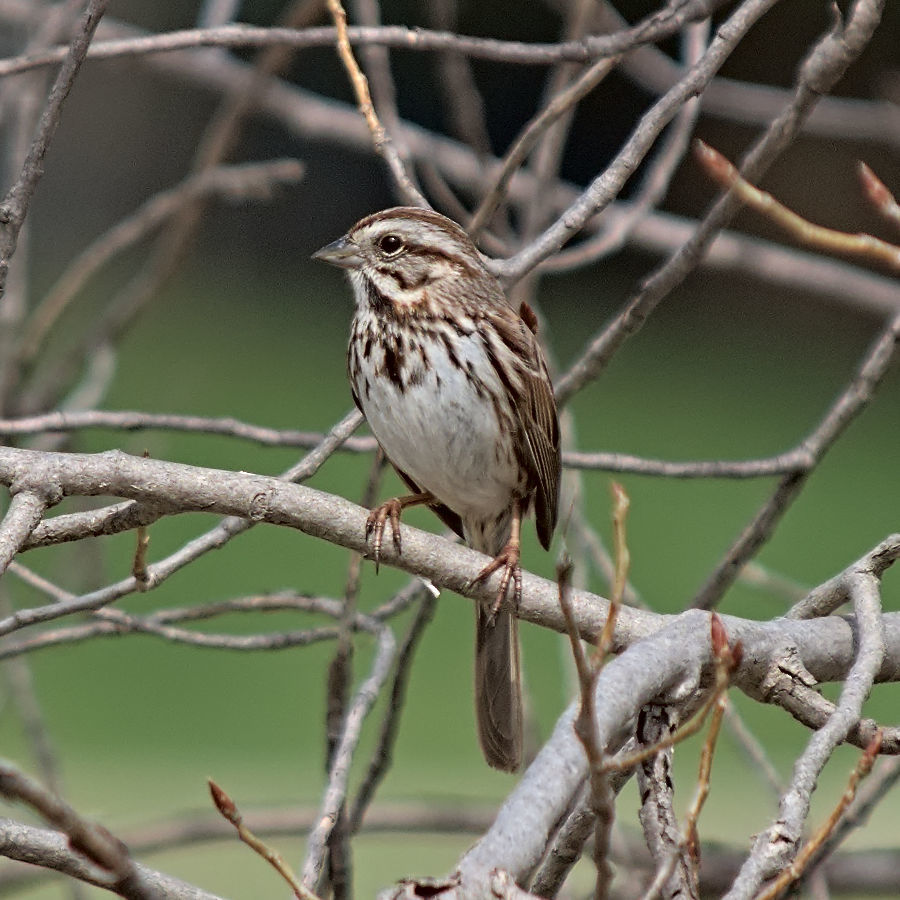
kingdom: Animalia
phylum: Chordata
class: Aves
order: Passeriformes
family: Passerellidae
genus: Melospiza
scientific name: Melospiza melodia
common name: Song sparrow
